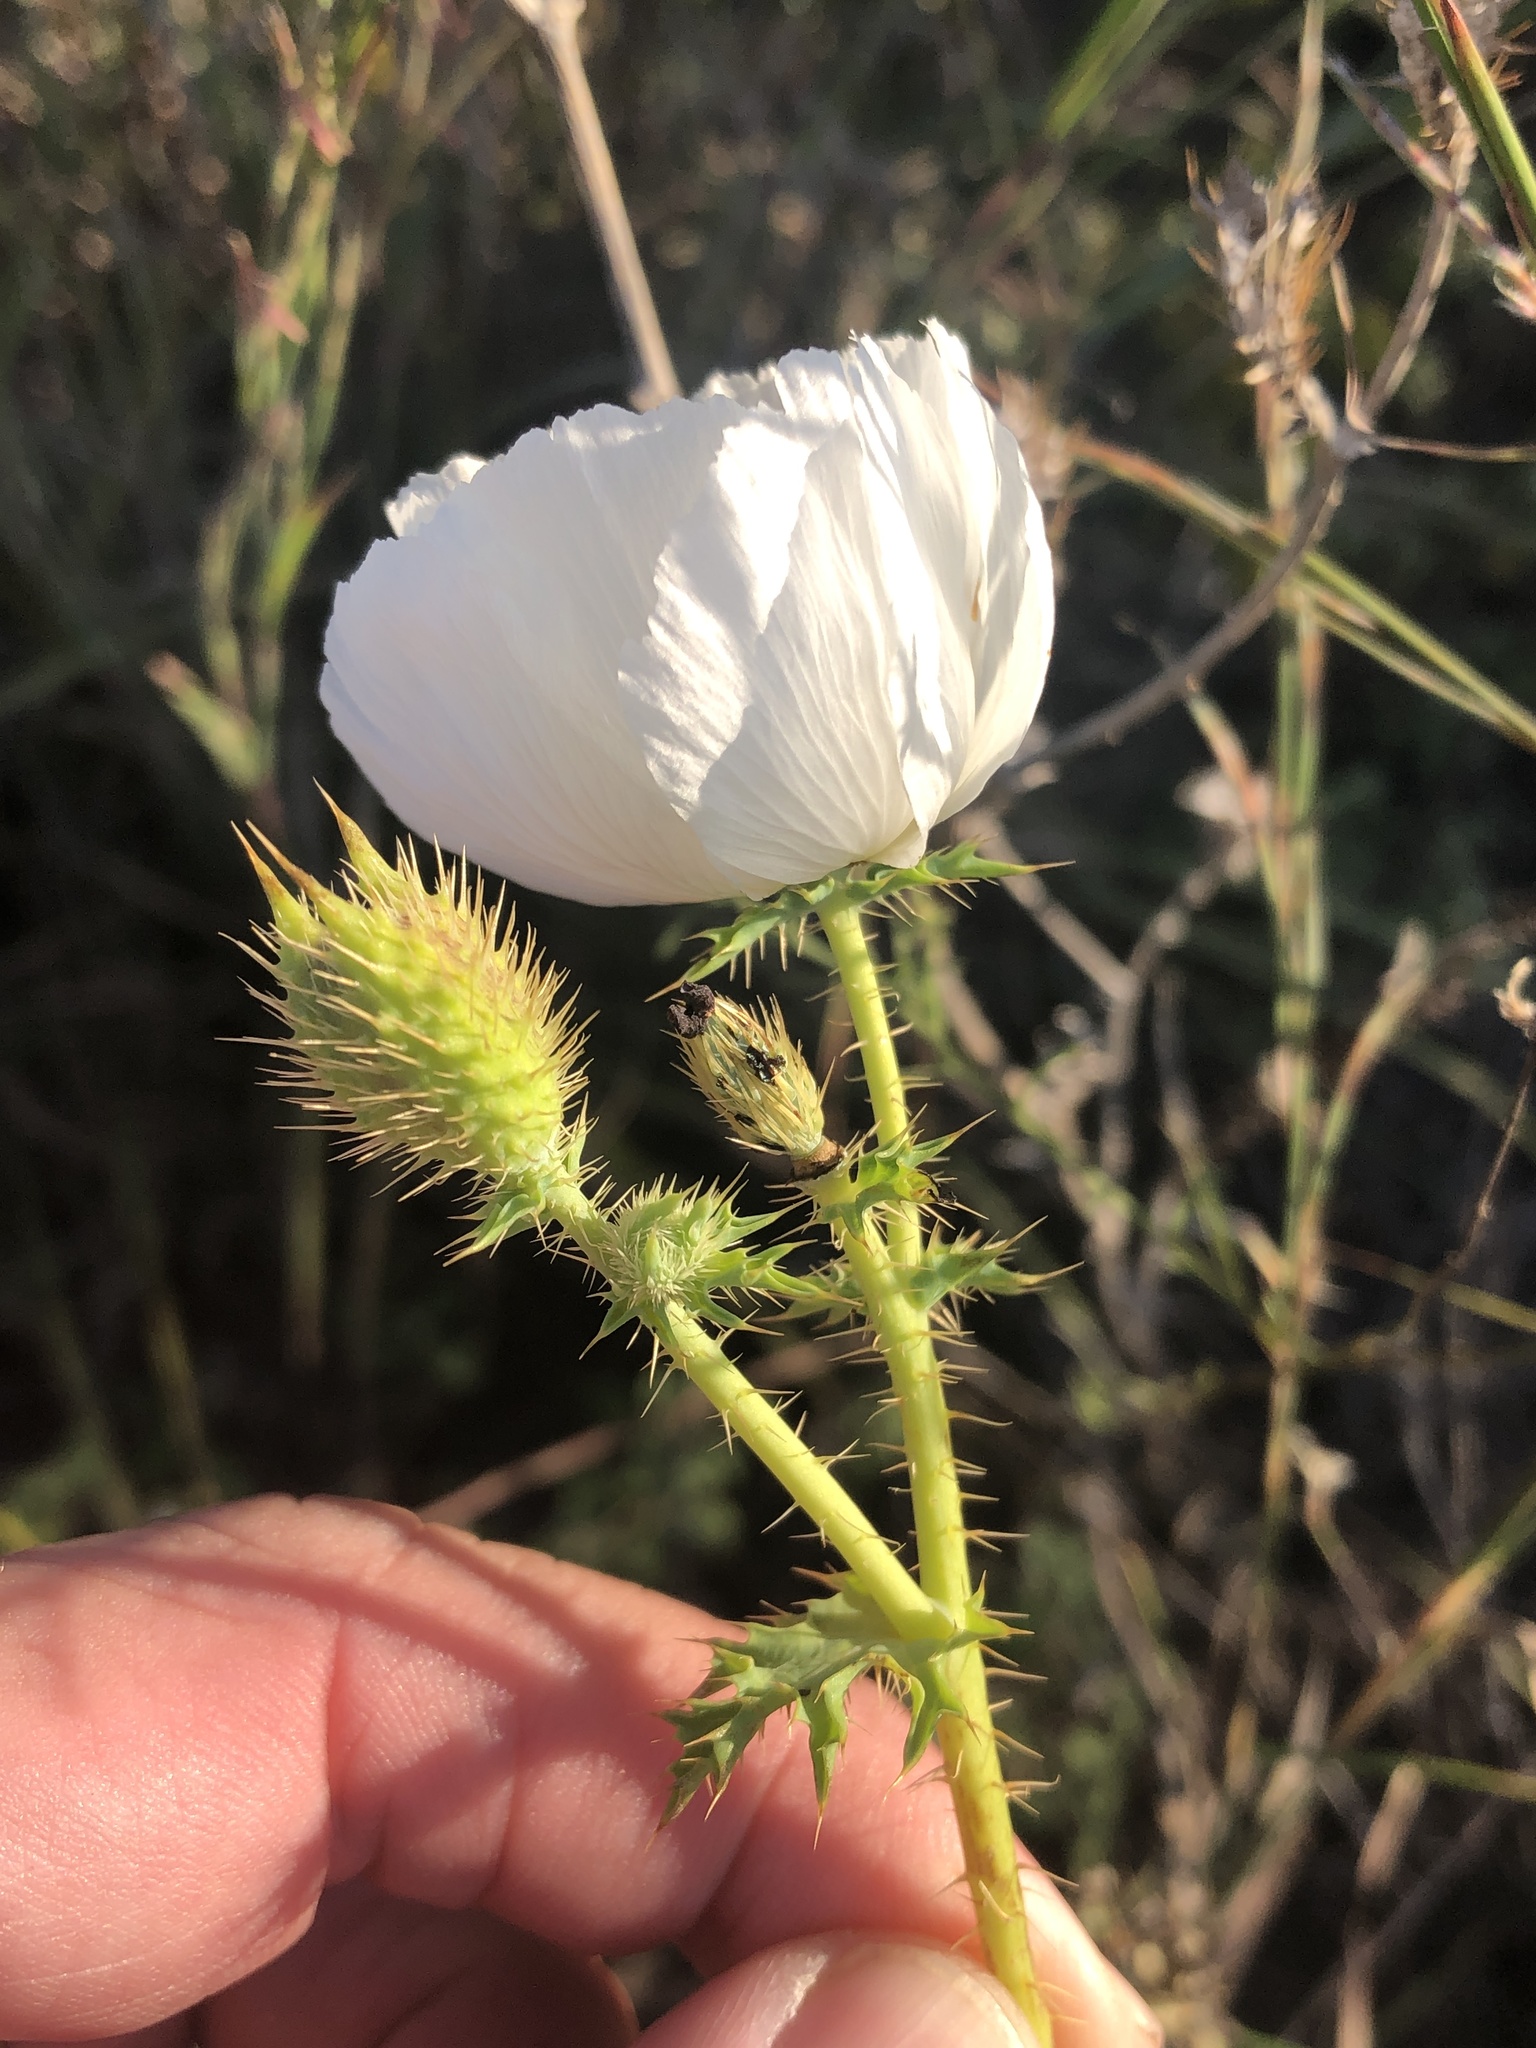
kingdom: Plantae
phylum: Tracheophyta
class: Magnoliopsida
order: Ranunculales
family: Papaveraceae
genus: Argemone
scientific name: Argemone albiflora
